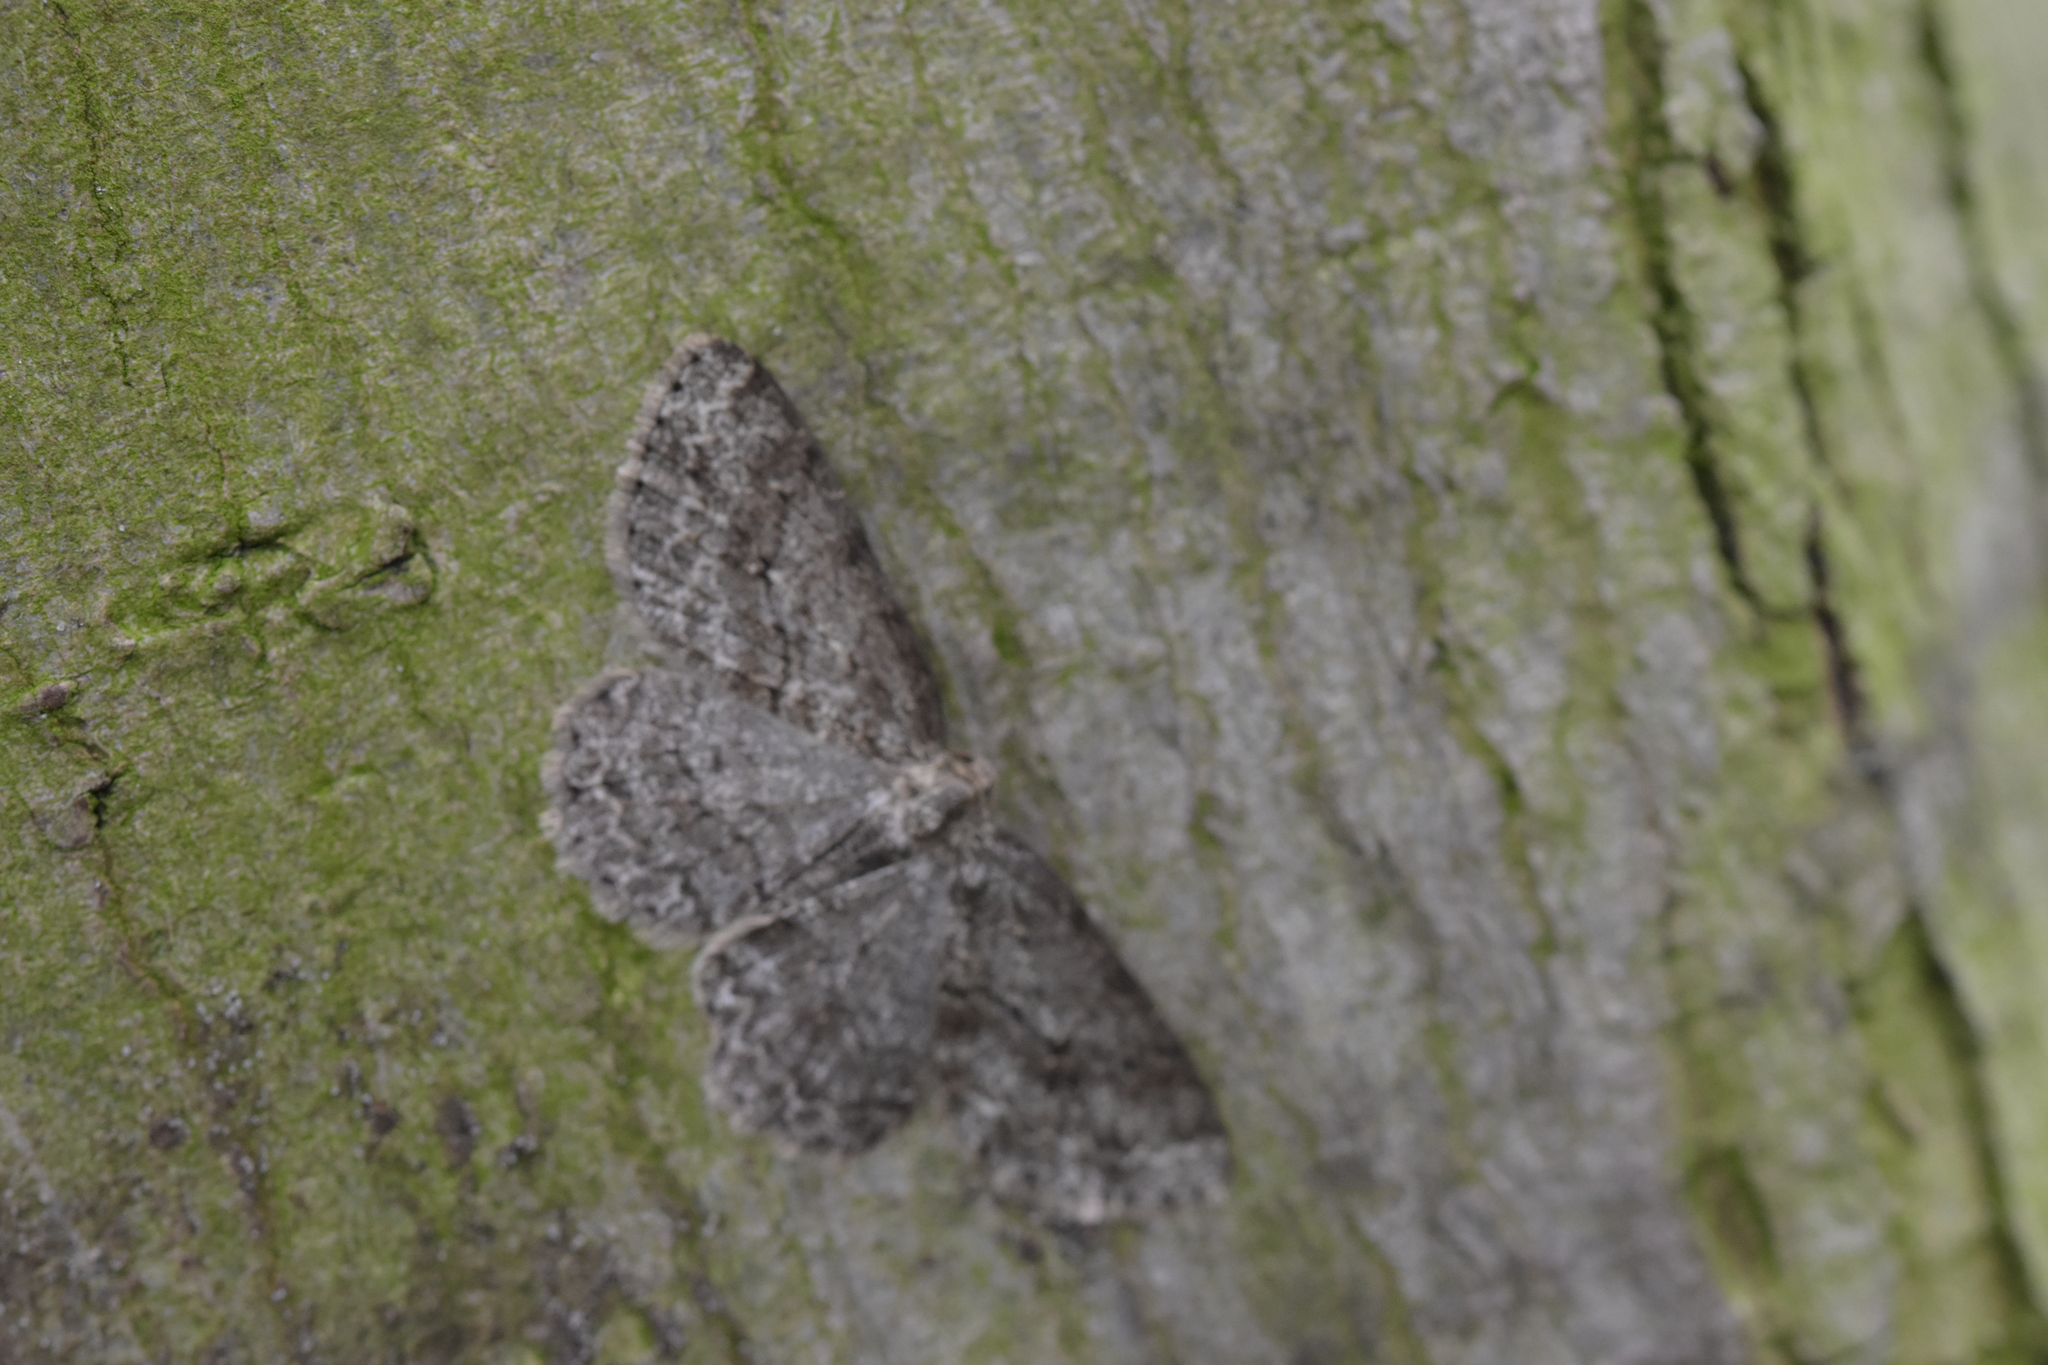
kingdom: Animalia
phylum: Arthropoda
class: Insecta
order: Lepidoptera
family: Geometridae
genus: Ectropis
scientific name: Ectropis crepuscularia
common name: Engrailed
